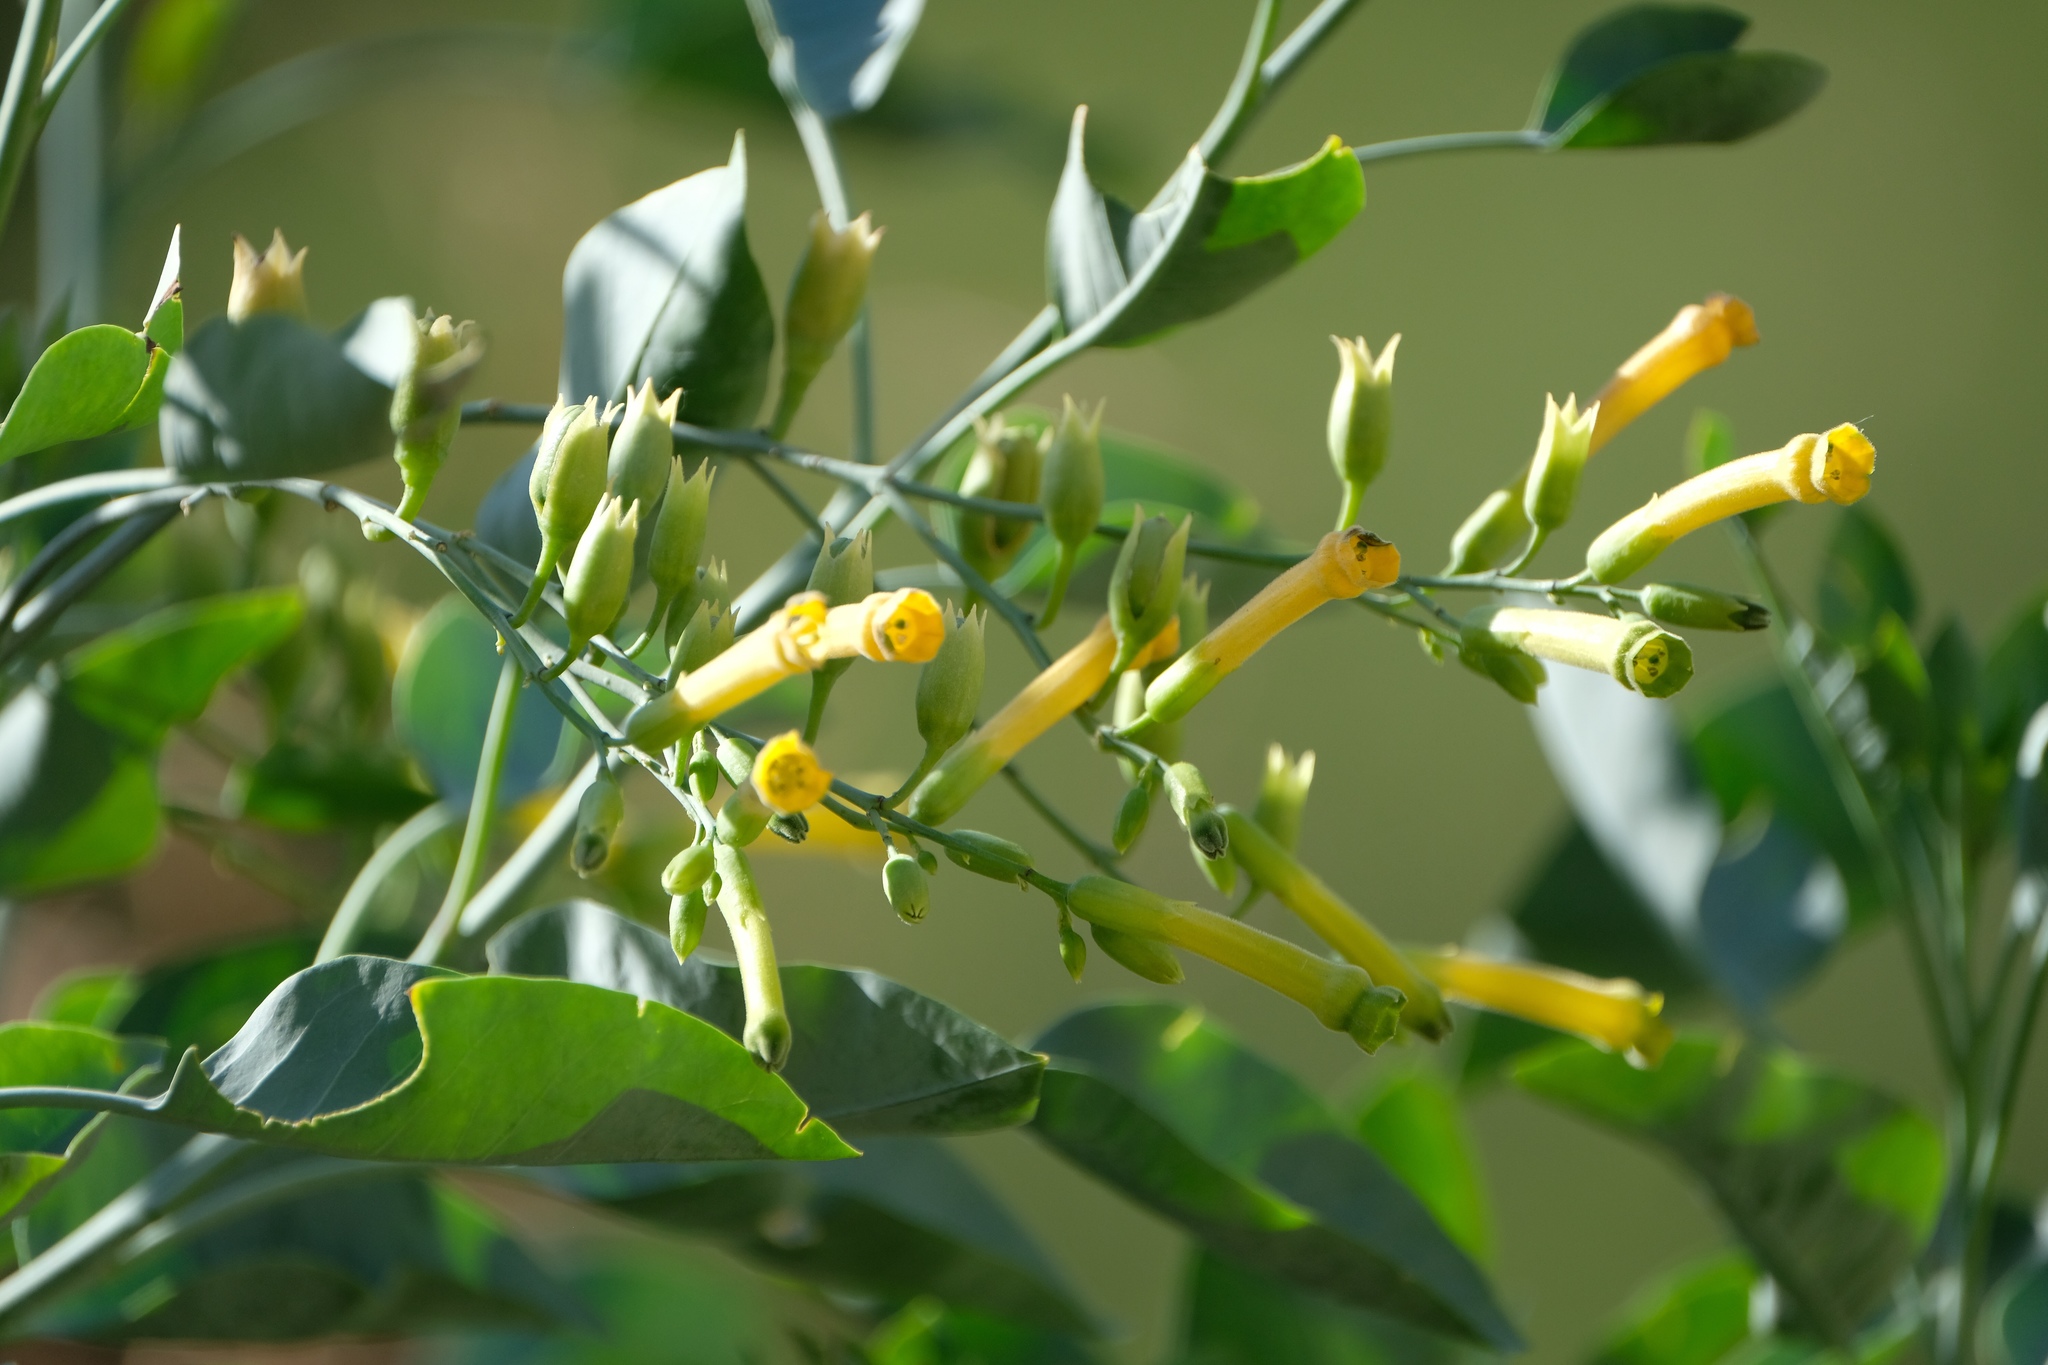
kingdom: Plantae
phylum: Tracheophyta
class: Magnoliopsida
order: Solanales
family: Solanaceae
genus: Nicotiana
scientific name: Nicotiana glauca
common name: Tree tobacco
